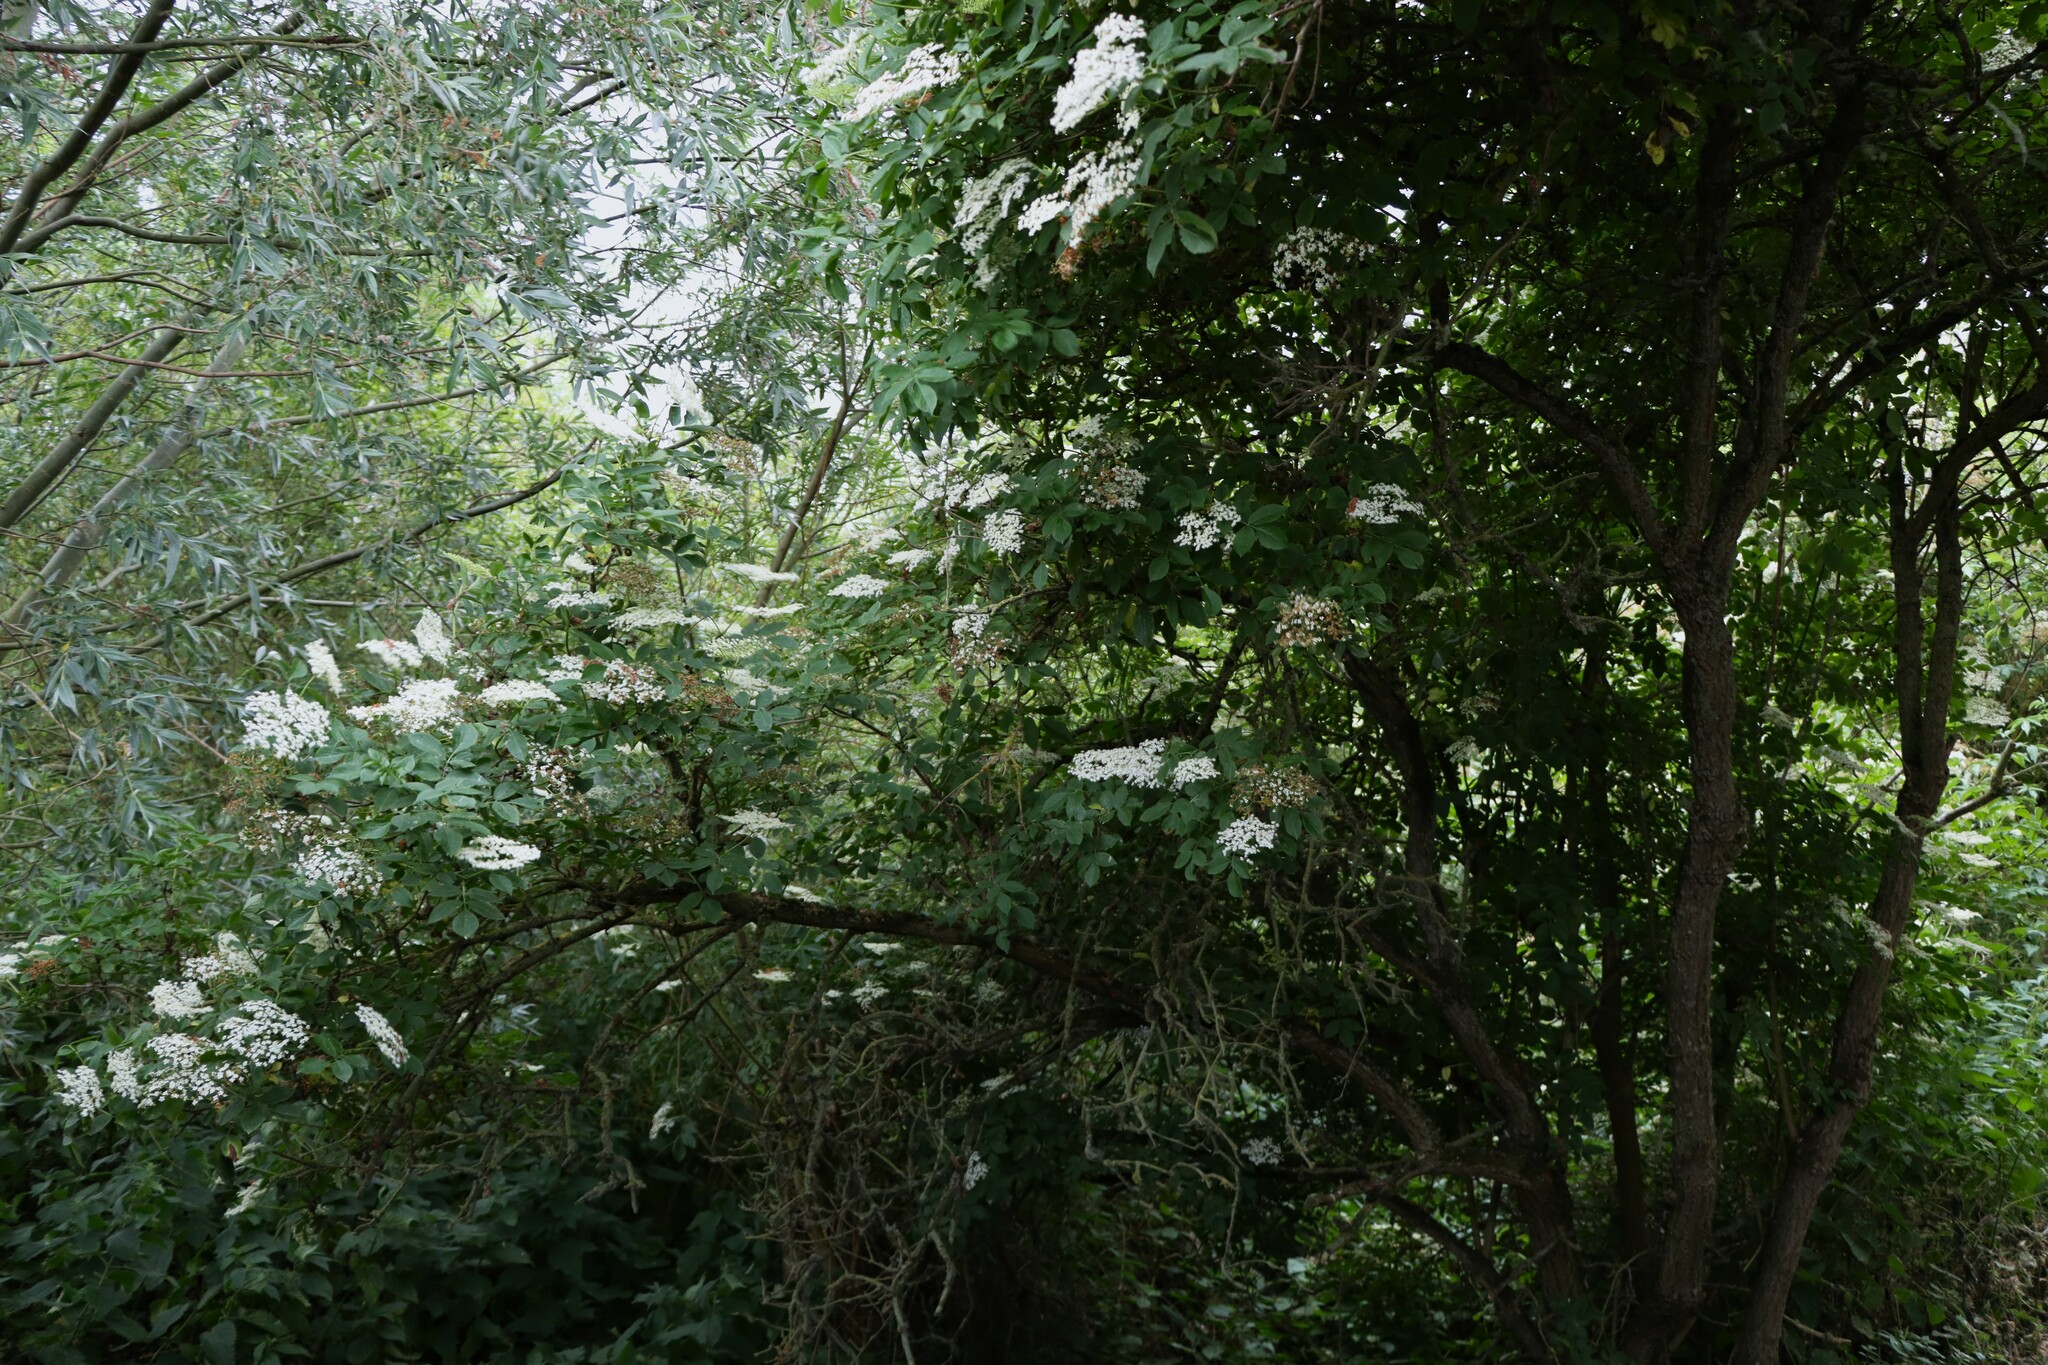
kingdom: Plantae
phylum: Tracheophyta
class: Magnoliopsida
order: Dipsacales
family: Viburnaceae
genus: Sambucus
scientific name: Sambucus nigra
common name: Elder
